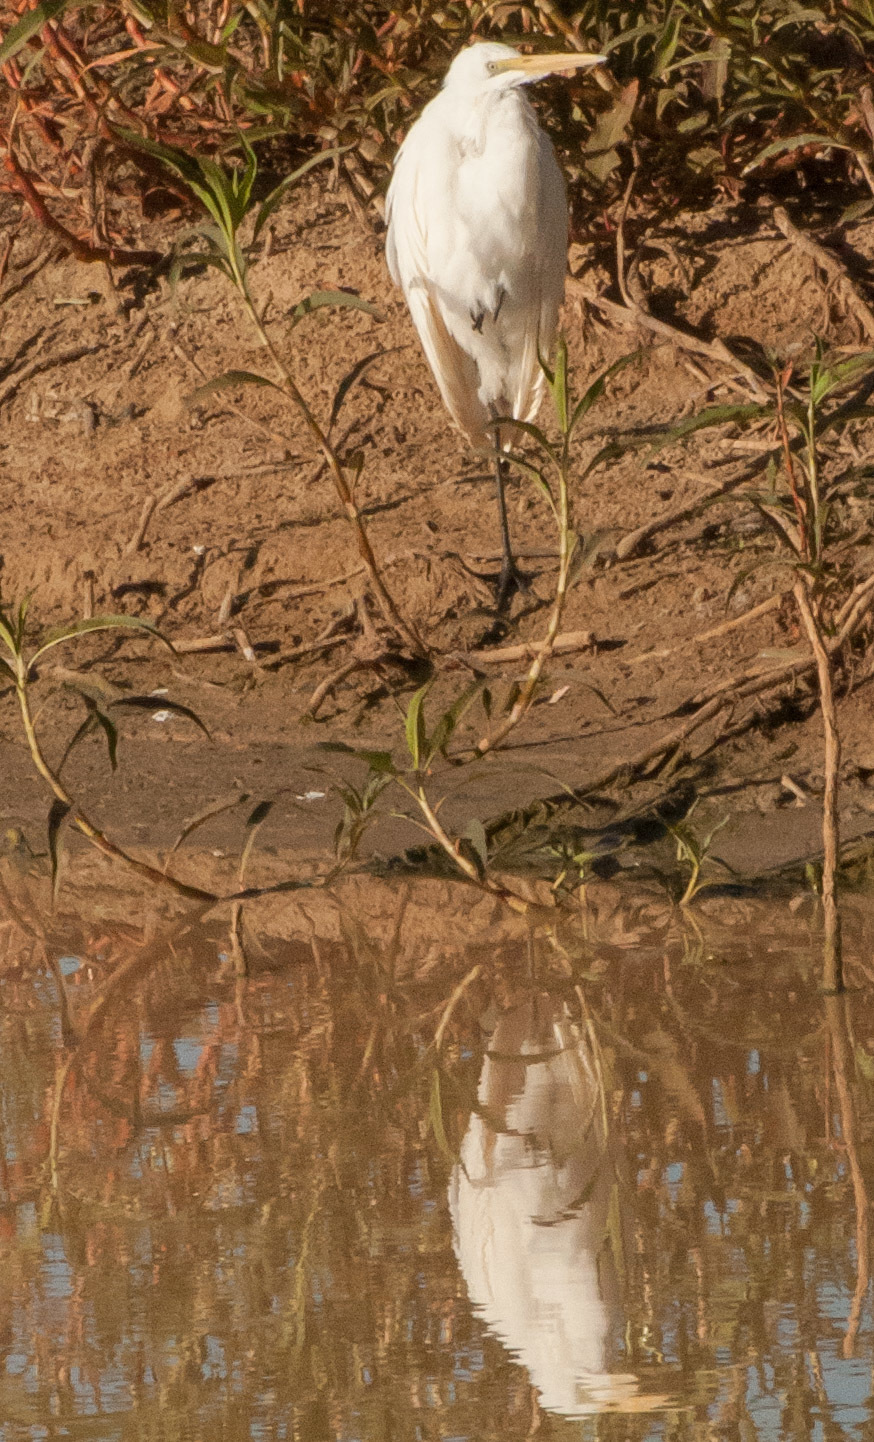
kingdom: Animalia
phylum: Chordata
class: Aves
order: Pelecaniformes
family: Ardeidae
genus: Ardea
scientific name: Ardea alba
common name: Great egret
